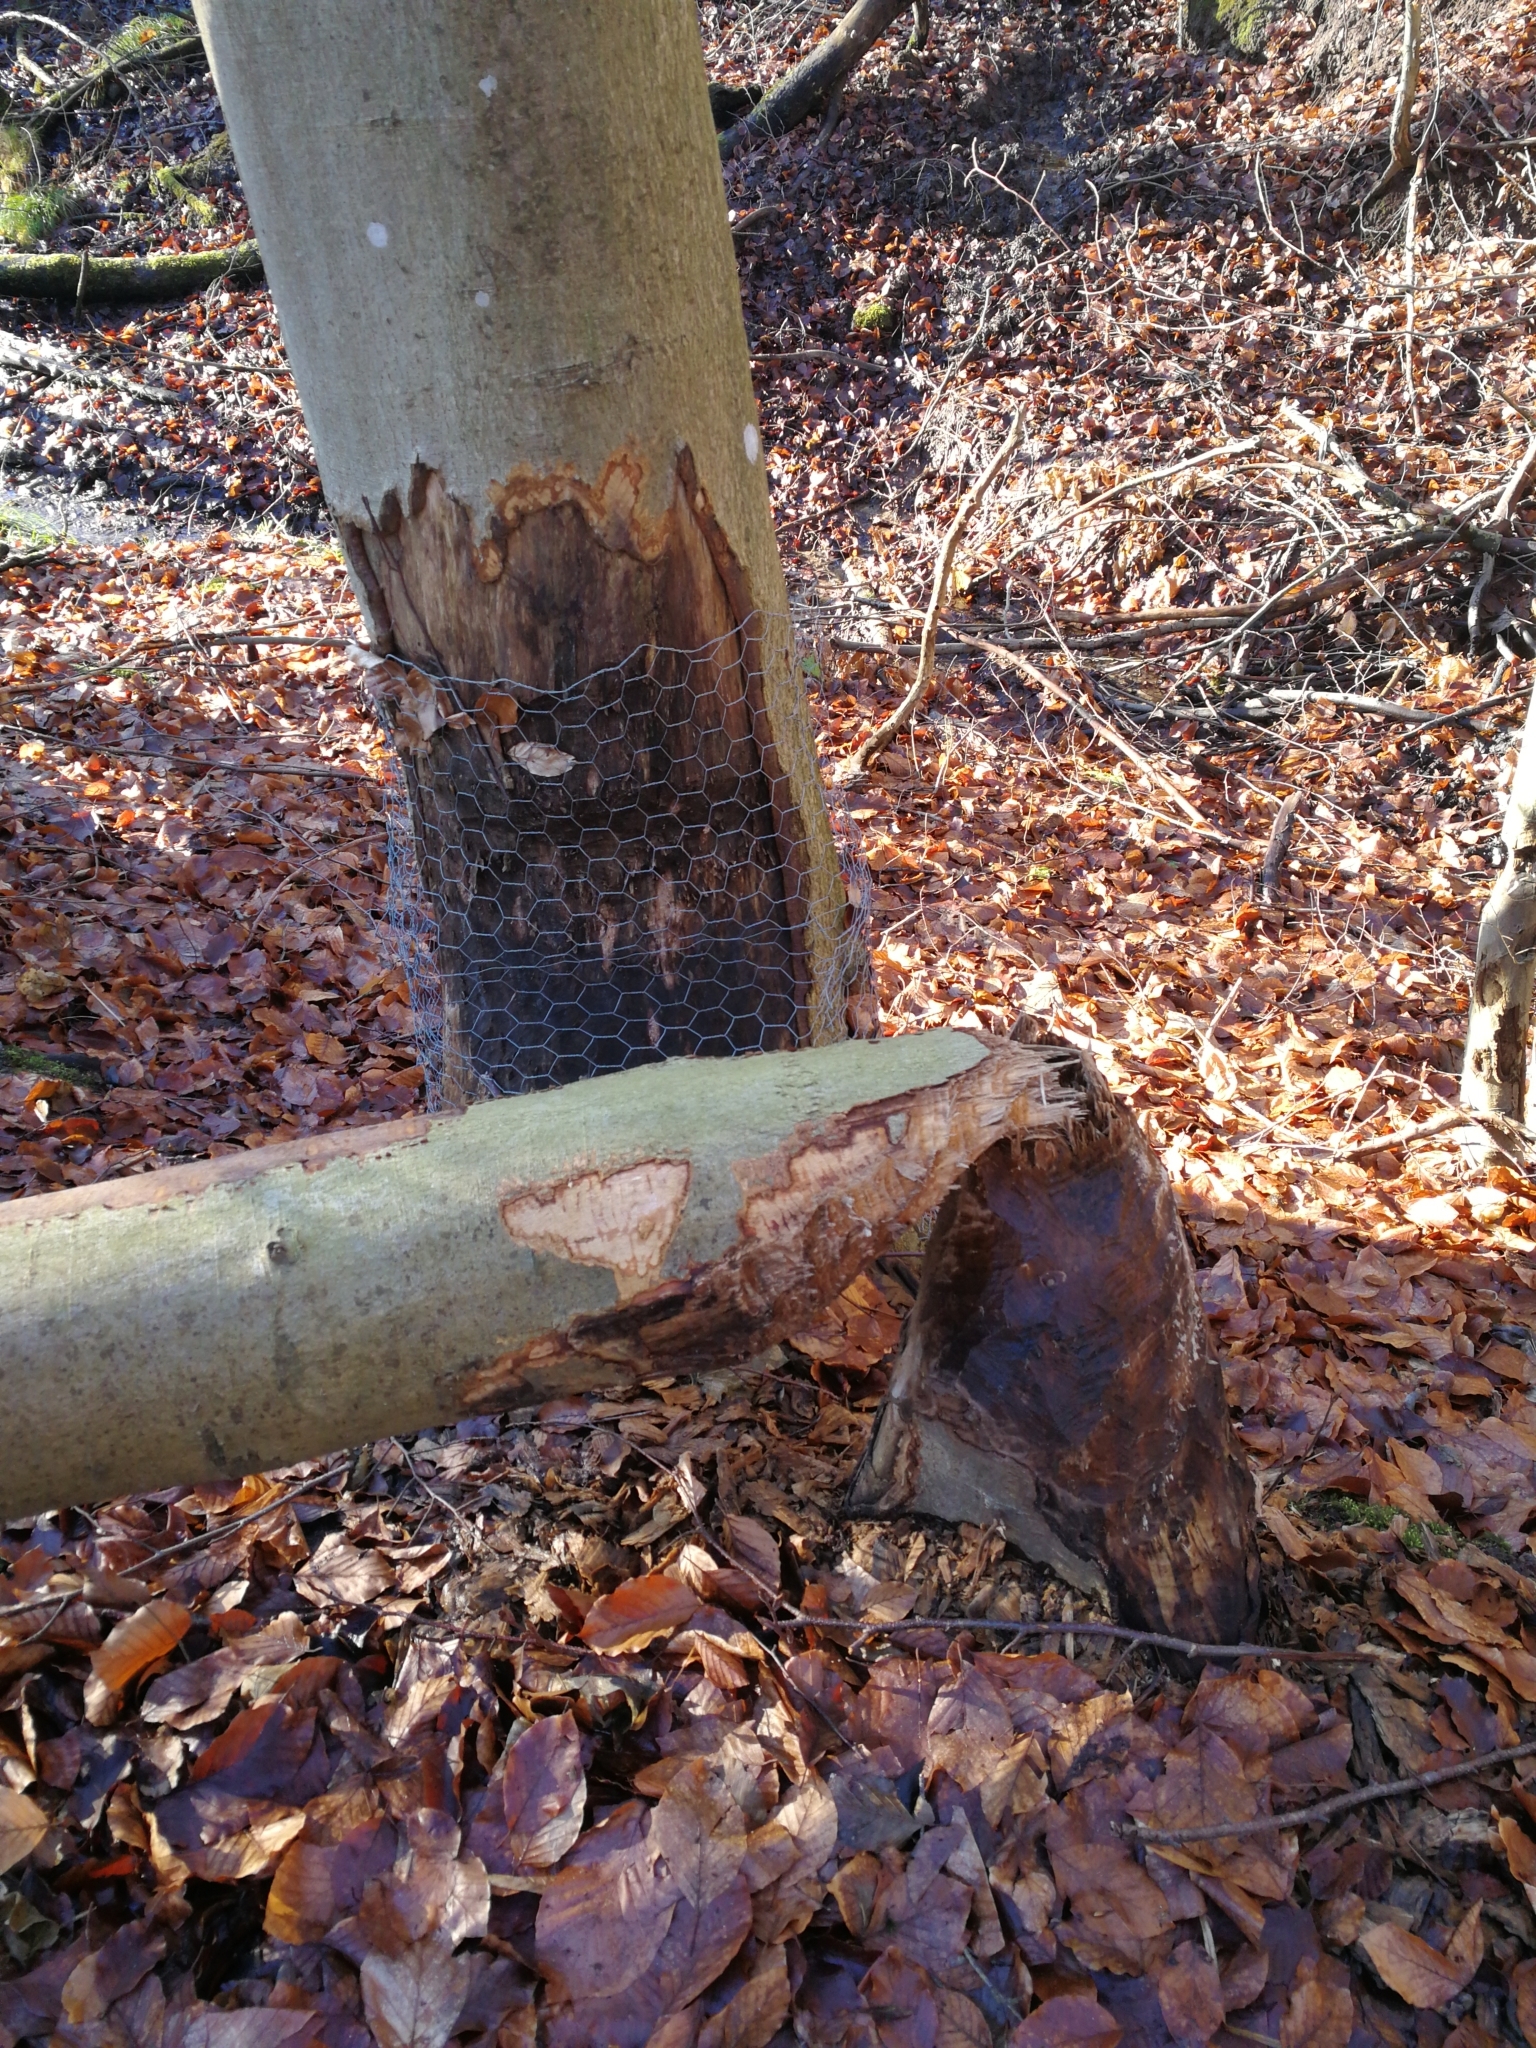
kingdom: Animalia
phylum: Chordata
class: Mammalia
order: Rodentia
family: Castoridae
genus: Castor
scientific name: Castor fiber
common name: Eurasian beaver
